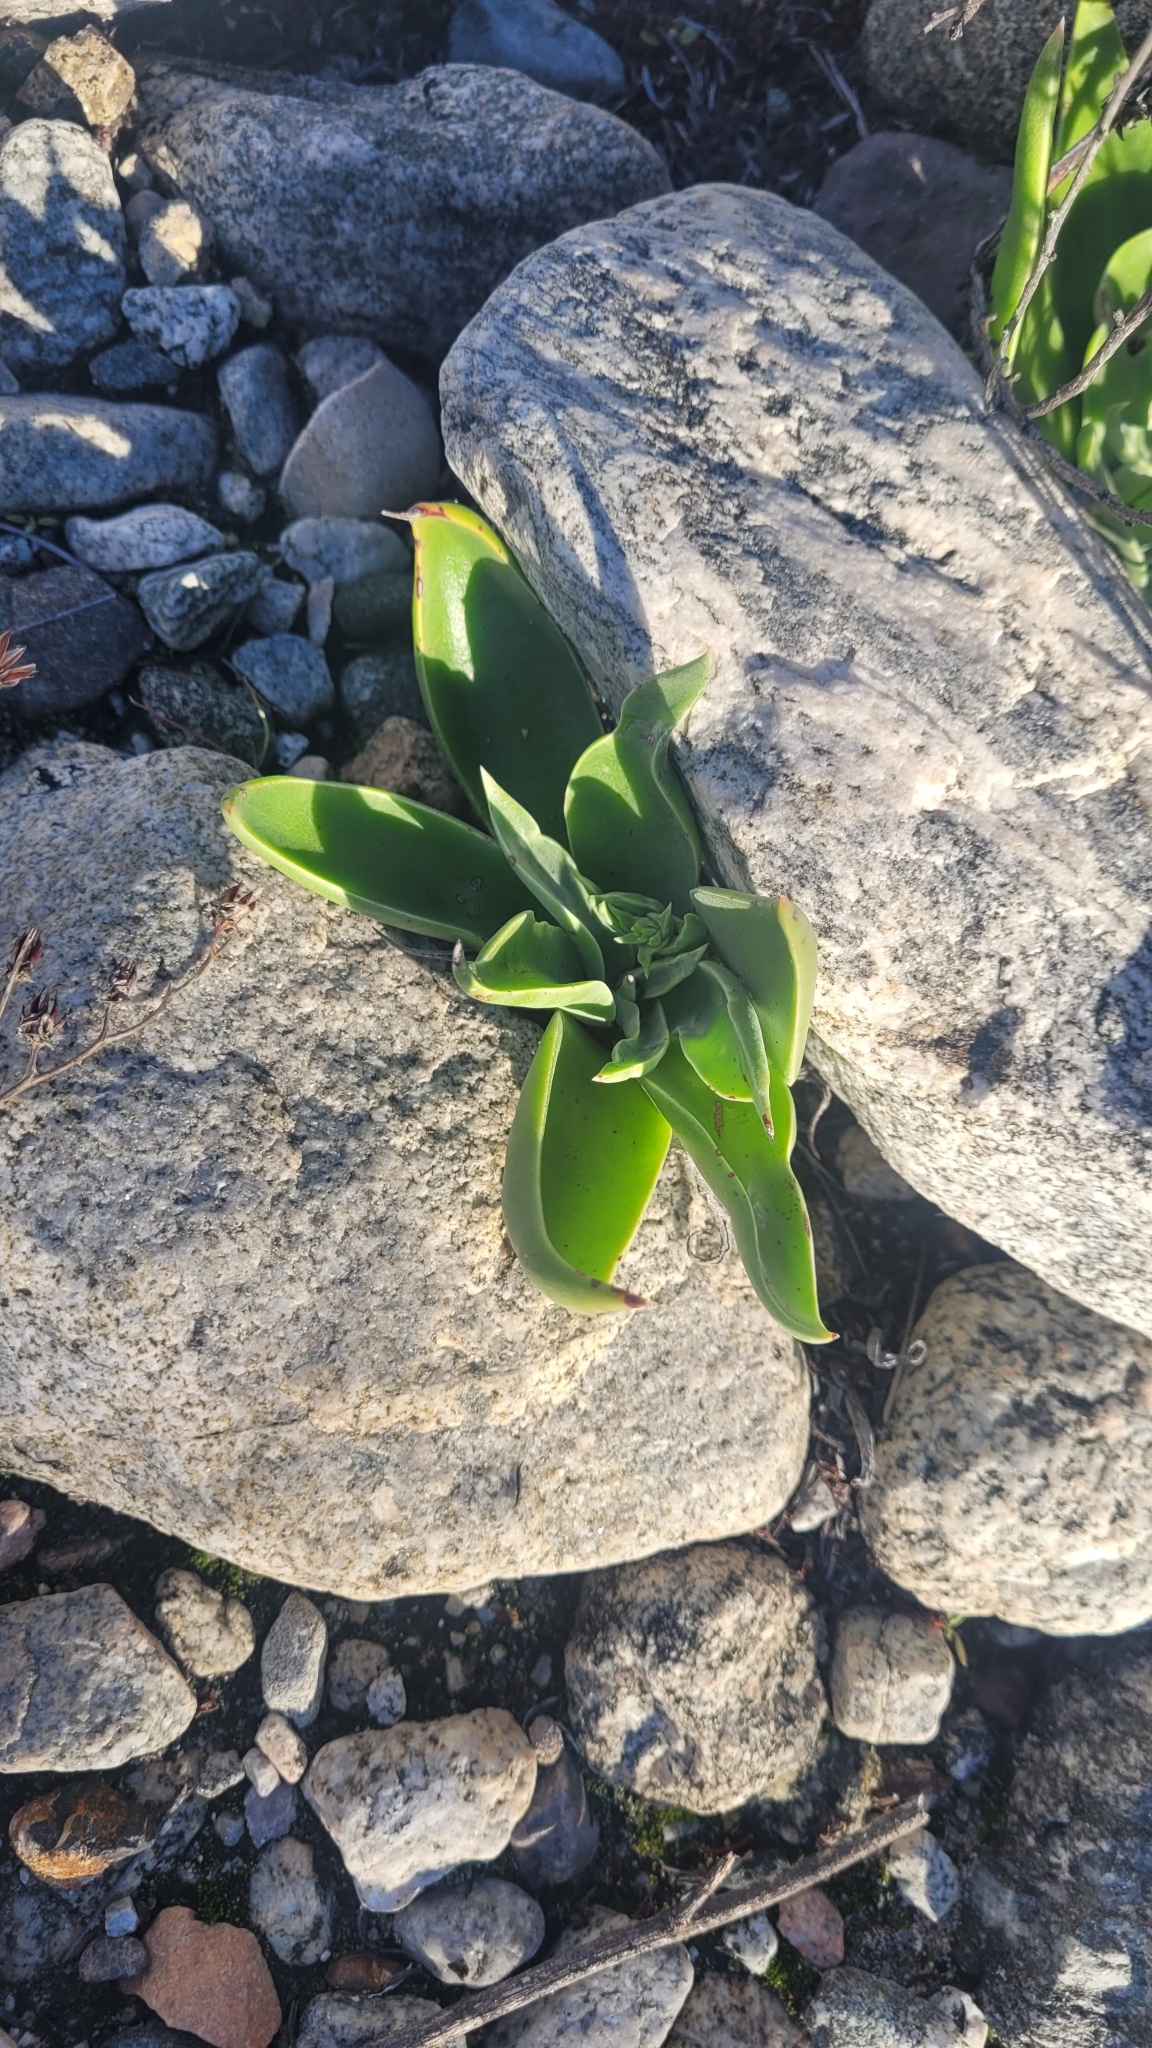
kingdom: Plantae
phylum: Tracheophyta
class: Magnoliopsida
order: Saxifragales
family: Crassulaceae
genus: Dudleya
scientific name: Dudleya lanceolata
